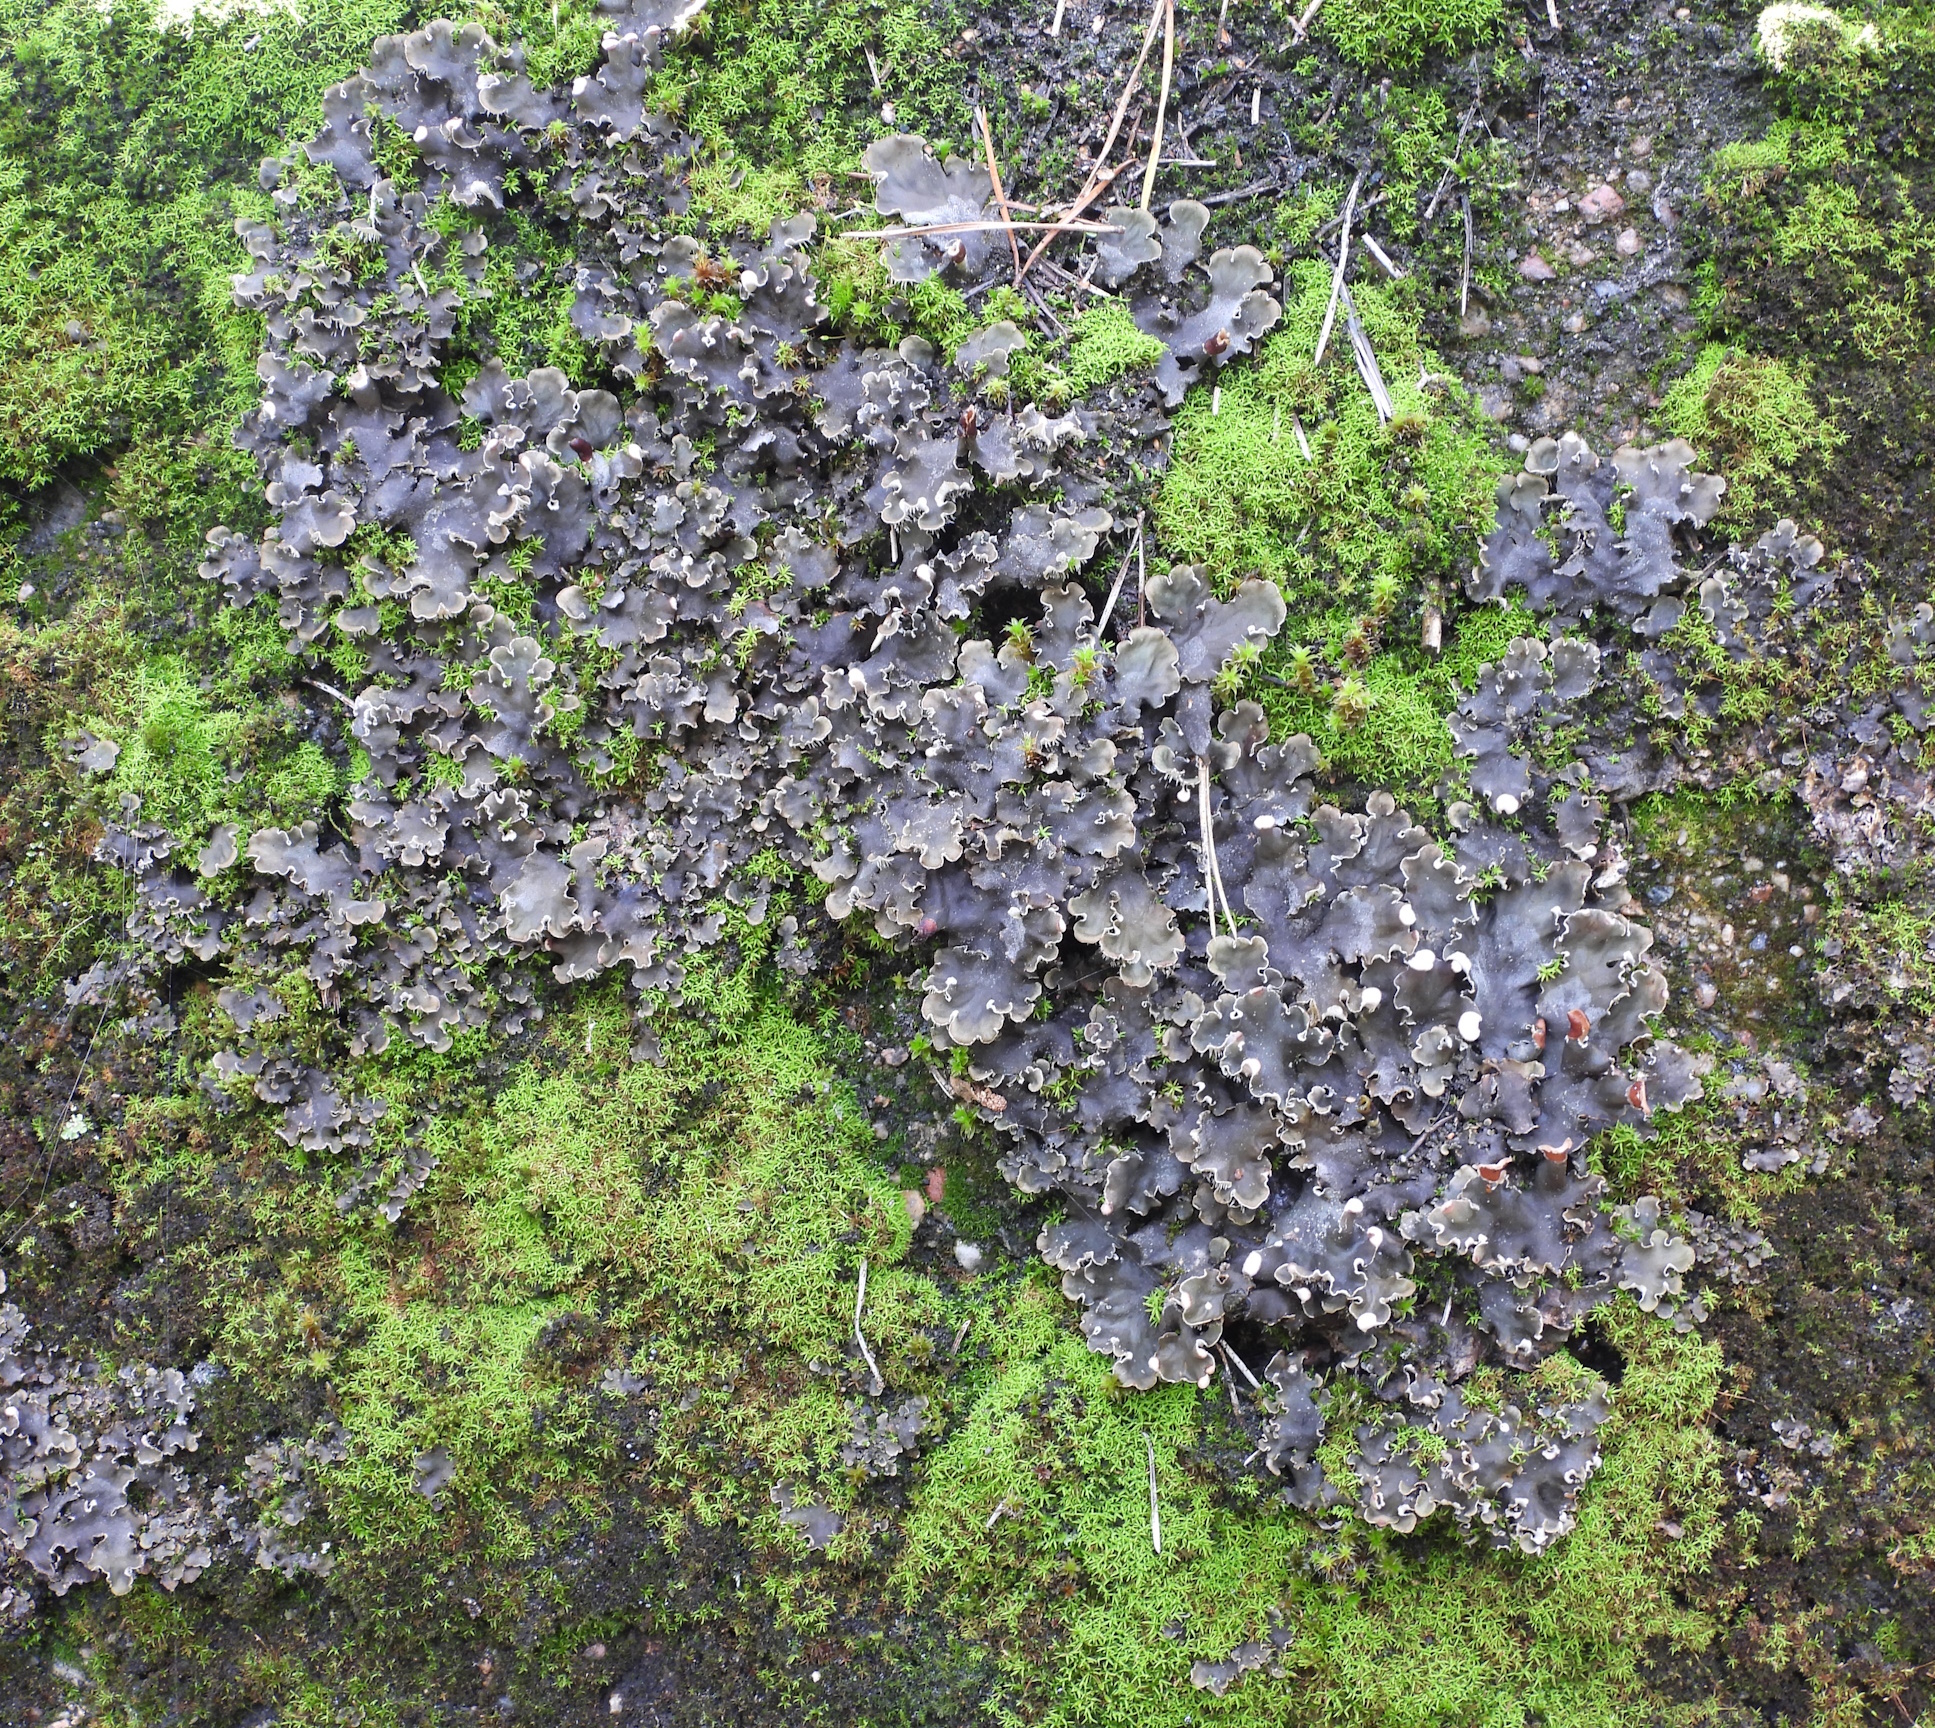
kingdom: Fungi
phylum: Ascomycota
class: Lecanoromycetes
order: Peltigerales
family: Peltigeraceae
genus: Peltigera
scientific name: Peltigera rufescens
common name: Field dog lichen
